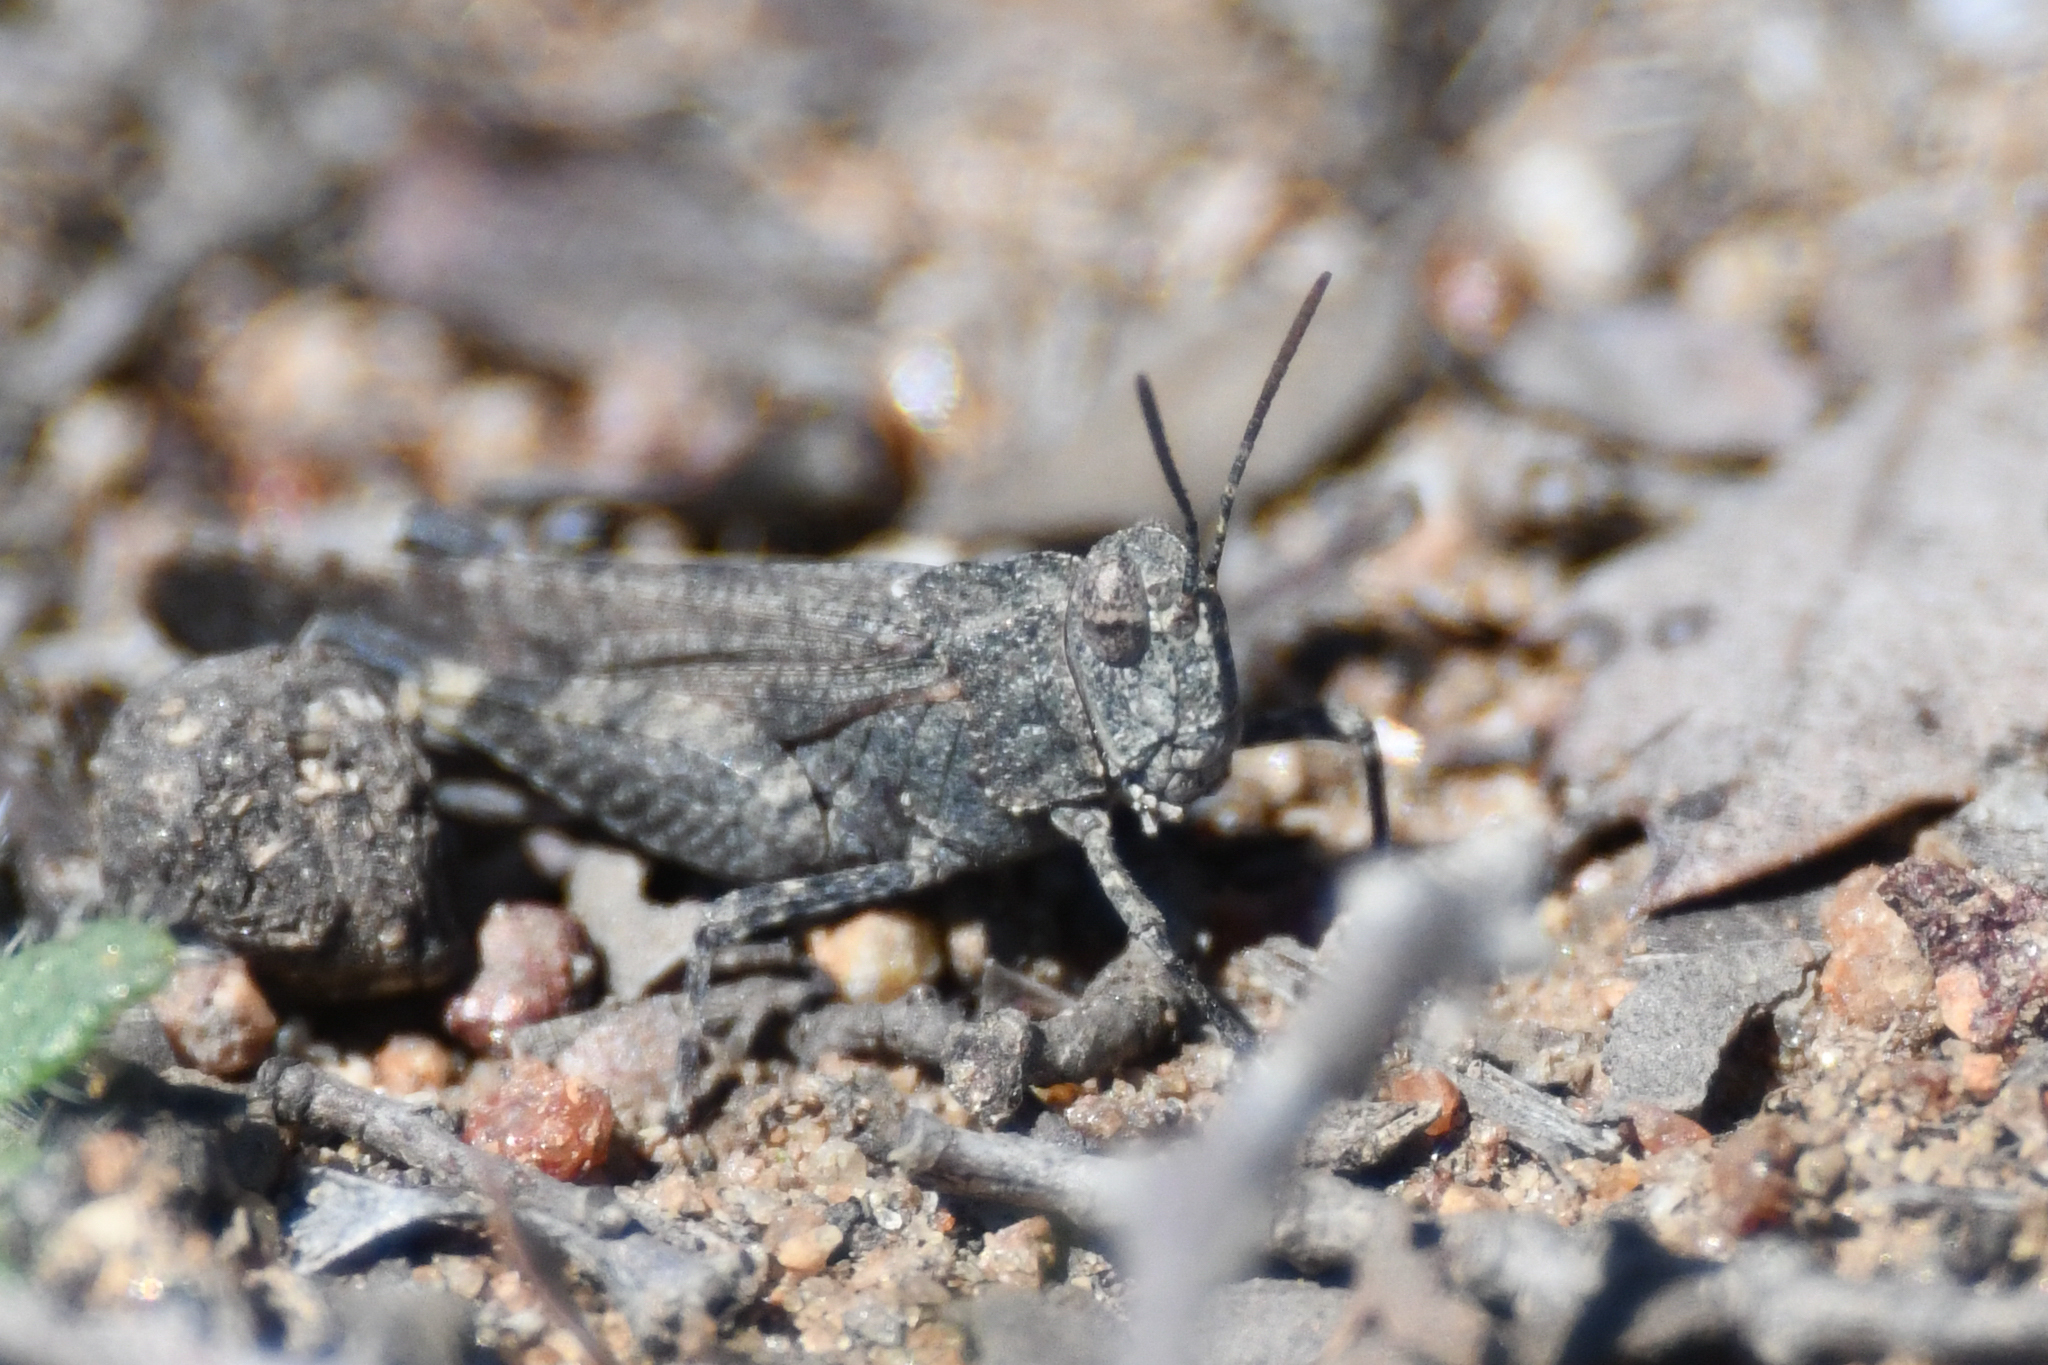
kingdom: Animalia
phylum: Arthropoda
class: Insecta
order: Orthoptera
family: Acrididae
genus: Lactista
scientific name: Lactista gibbosus
